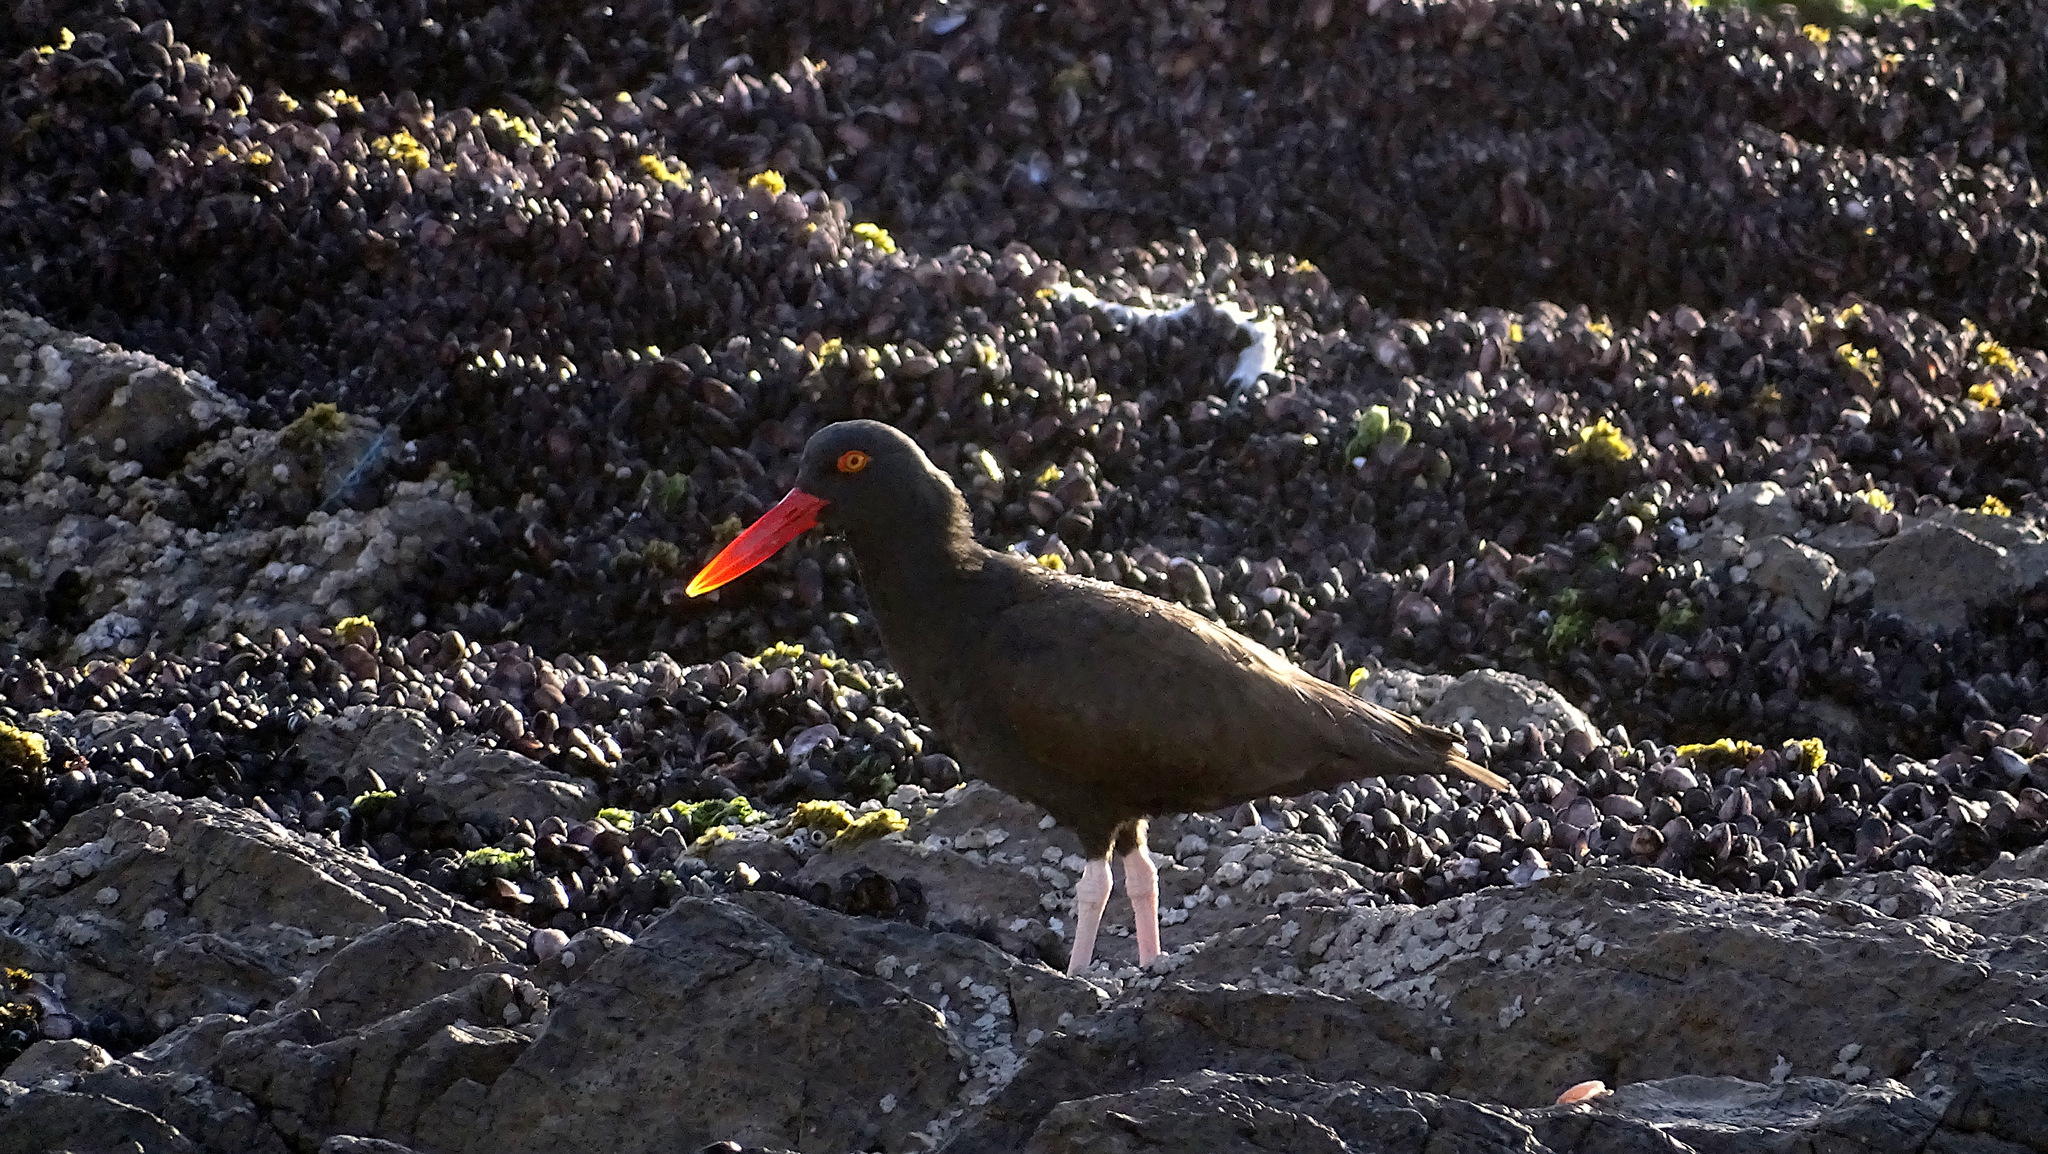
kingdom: Animalia
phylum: Chordata
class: Aves
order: Charadriiformes
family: Haematopodidae
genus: Haematopus
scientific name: Haematopus ater
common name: Blackish oystercatcher
